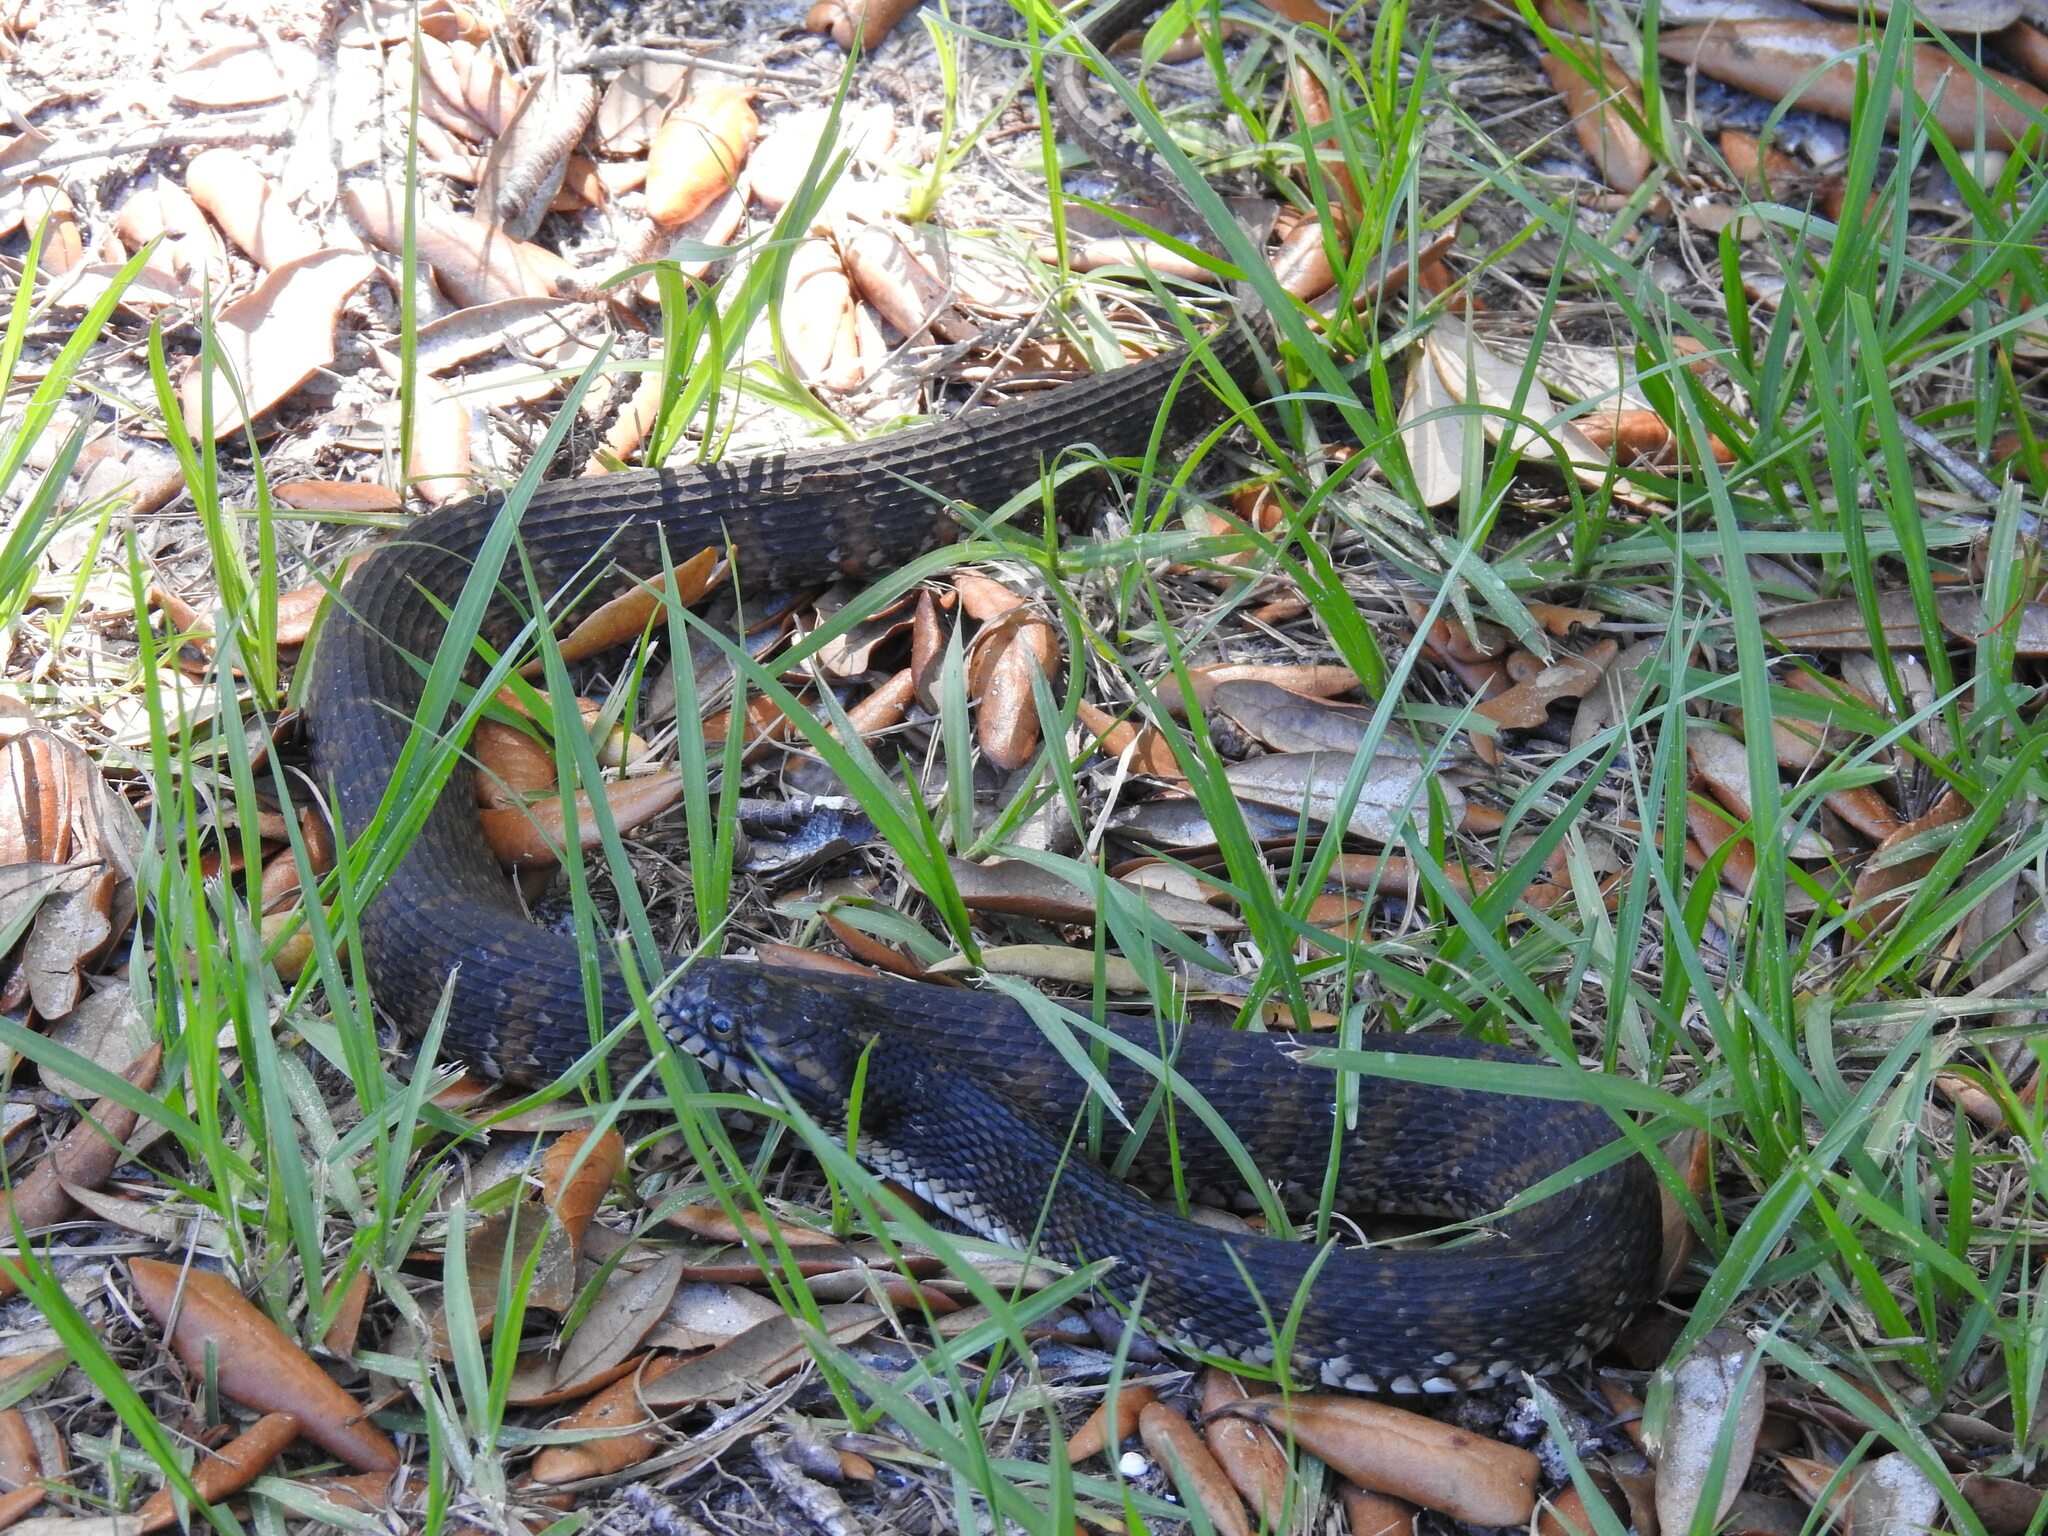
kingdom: Animalia
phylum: Chordata
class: Squamata
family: Colubridae
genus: Nerodia
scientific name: Nerodia fasciata
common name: Southern water snake
